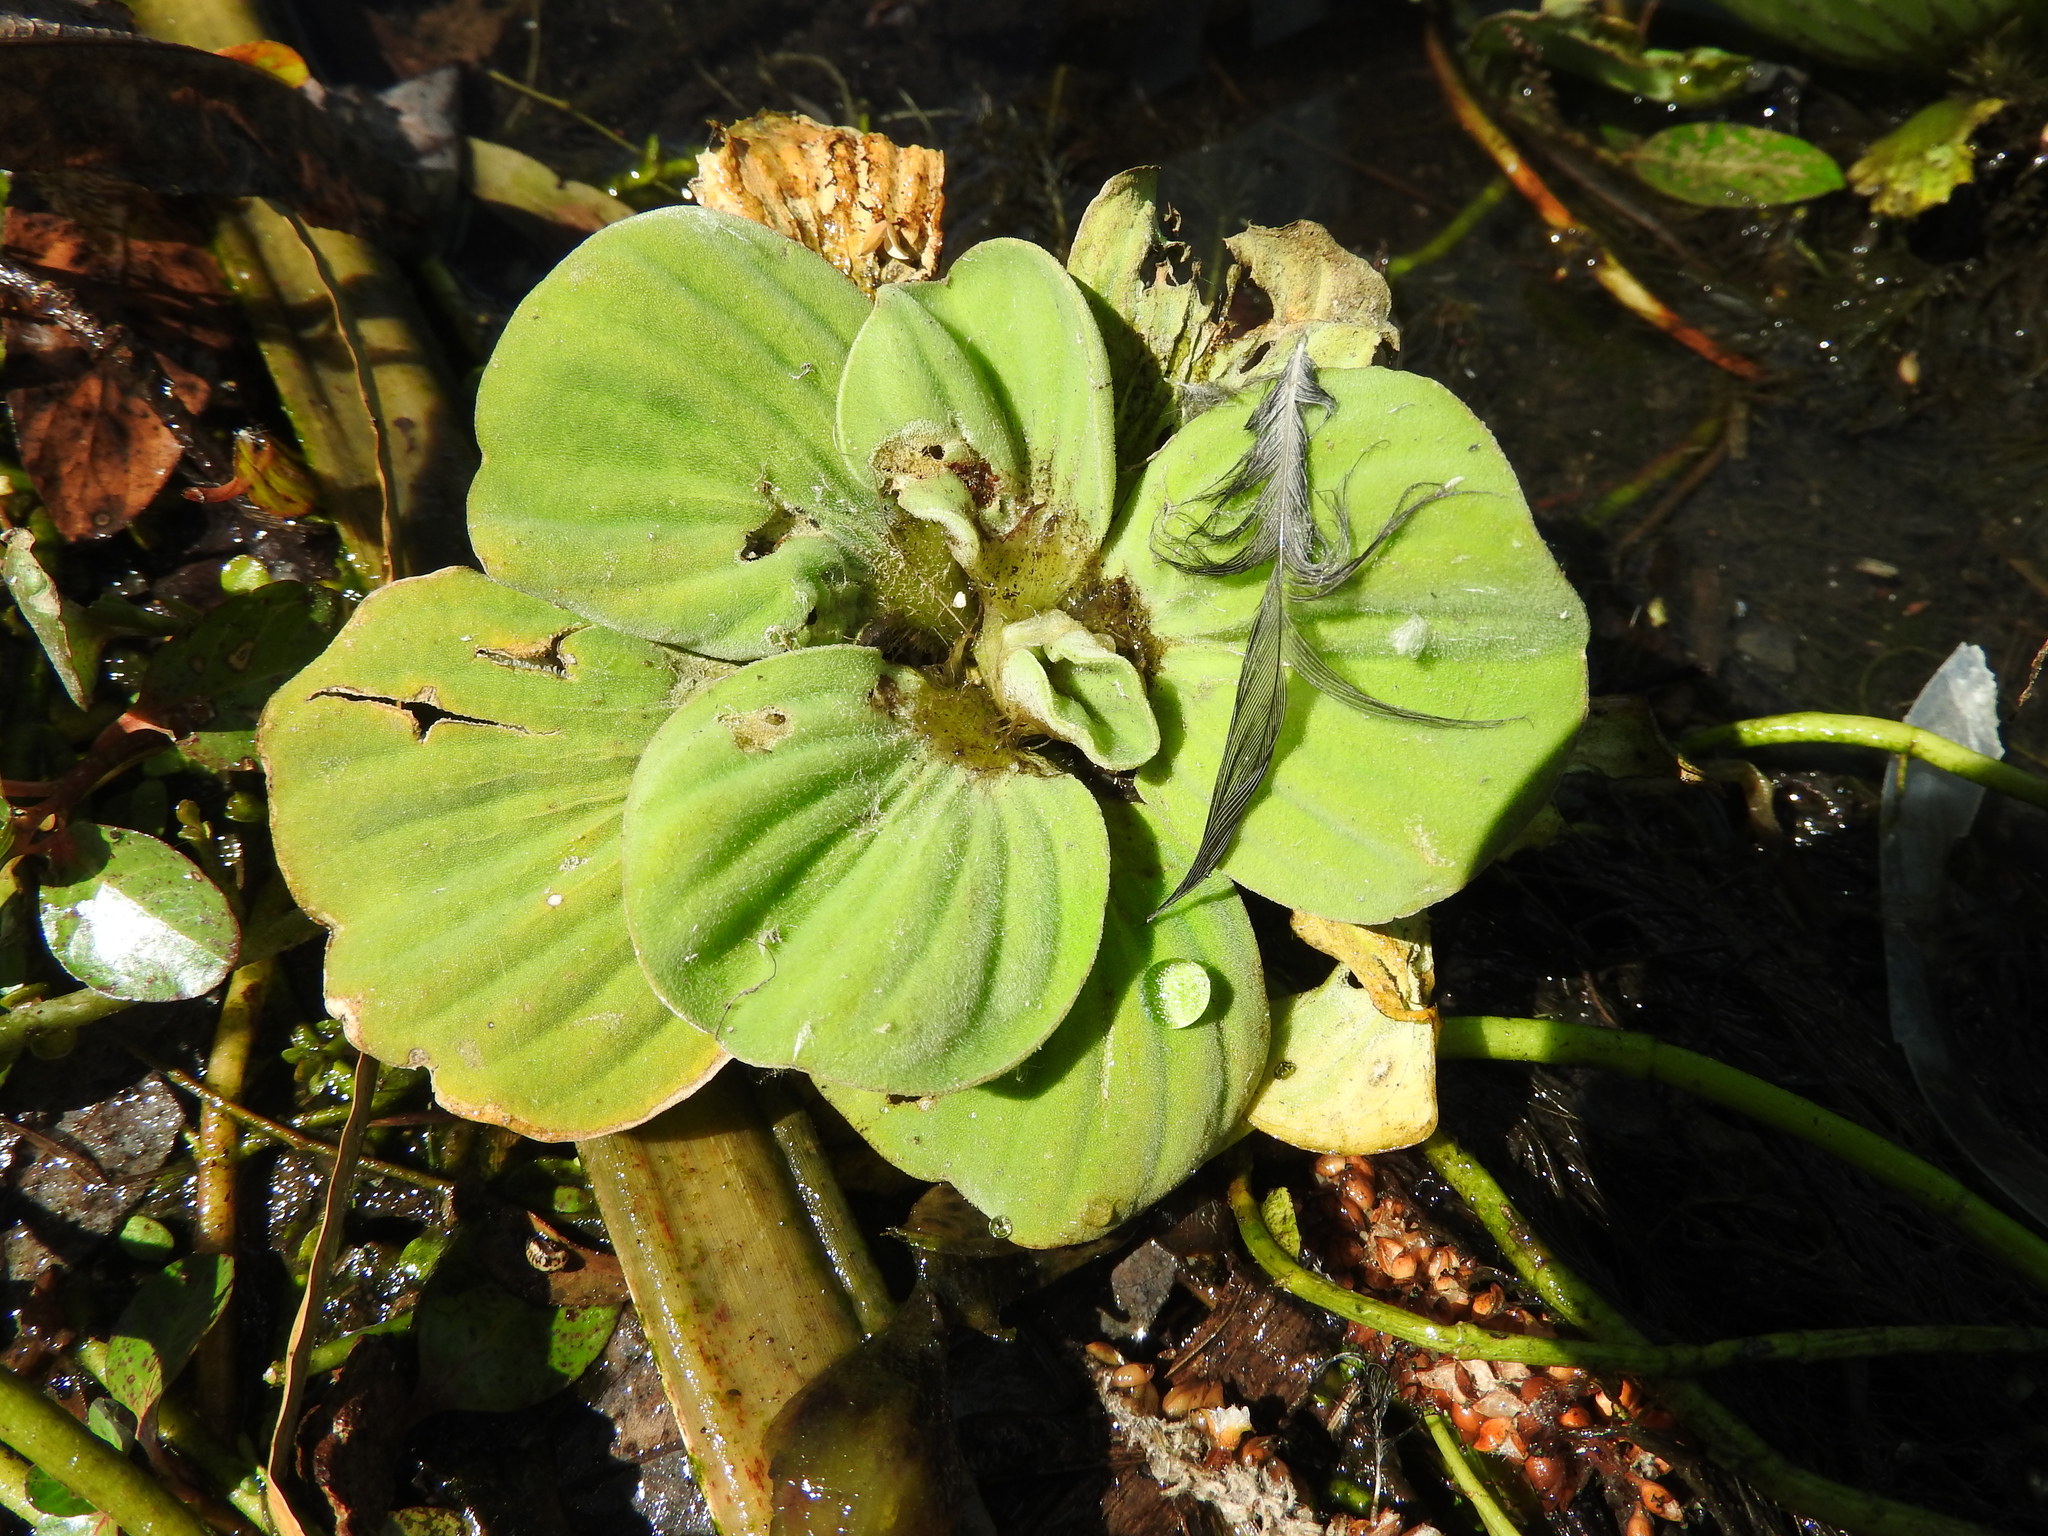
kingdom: Plantae
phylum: Tracheophyta
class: Liliopsida
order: Alismatales
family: Araceae
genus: Pistia
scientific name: Pistia stratiotes
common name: Water lettuce
